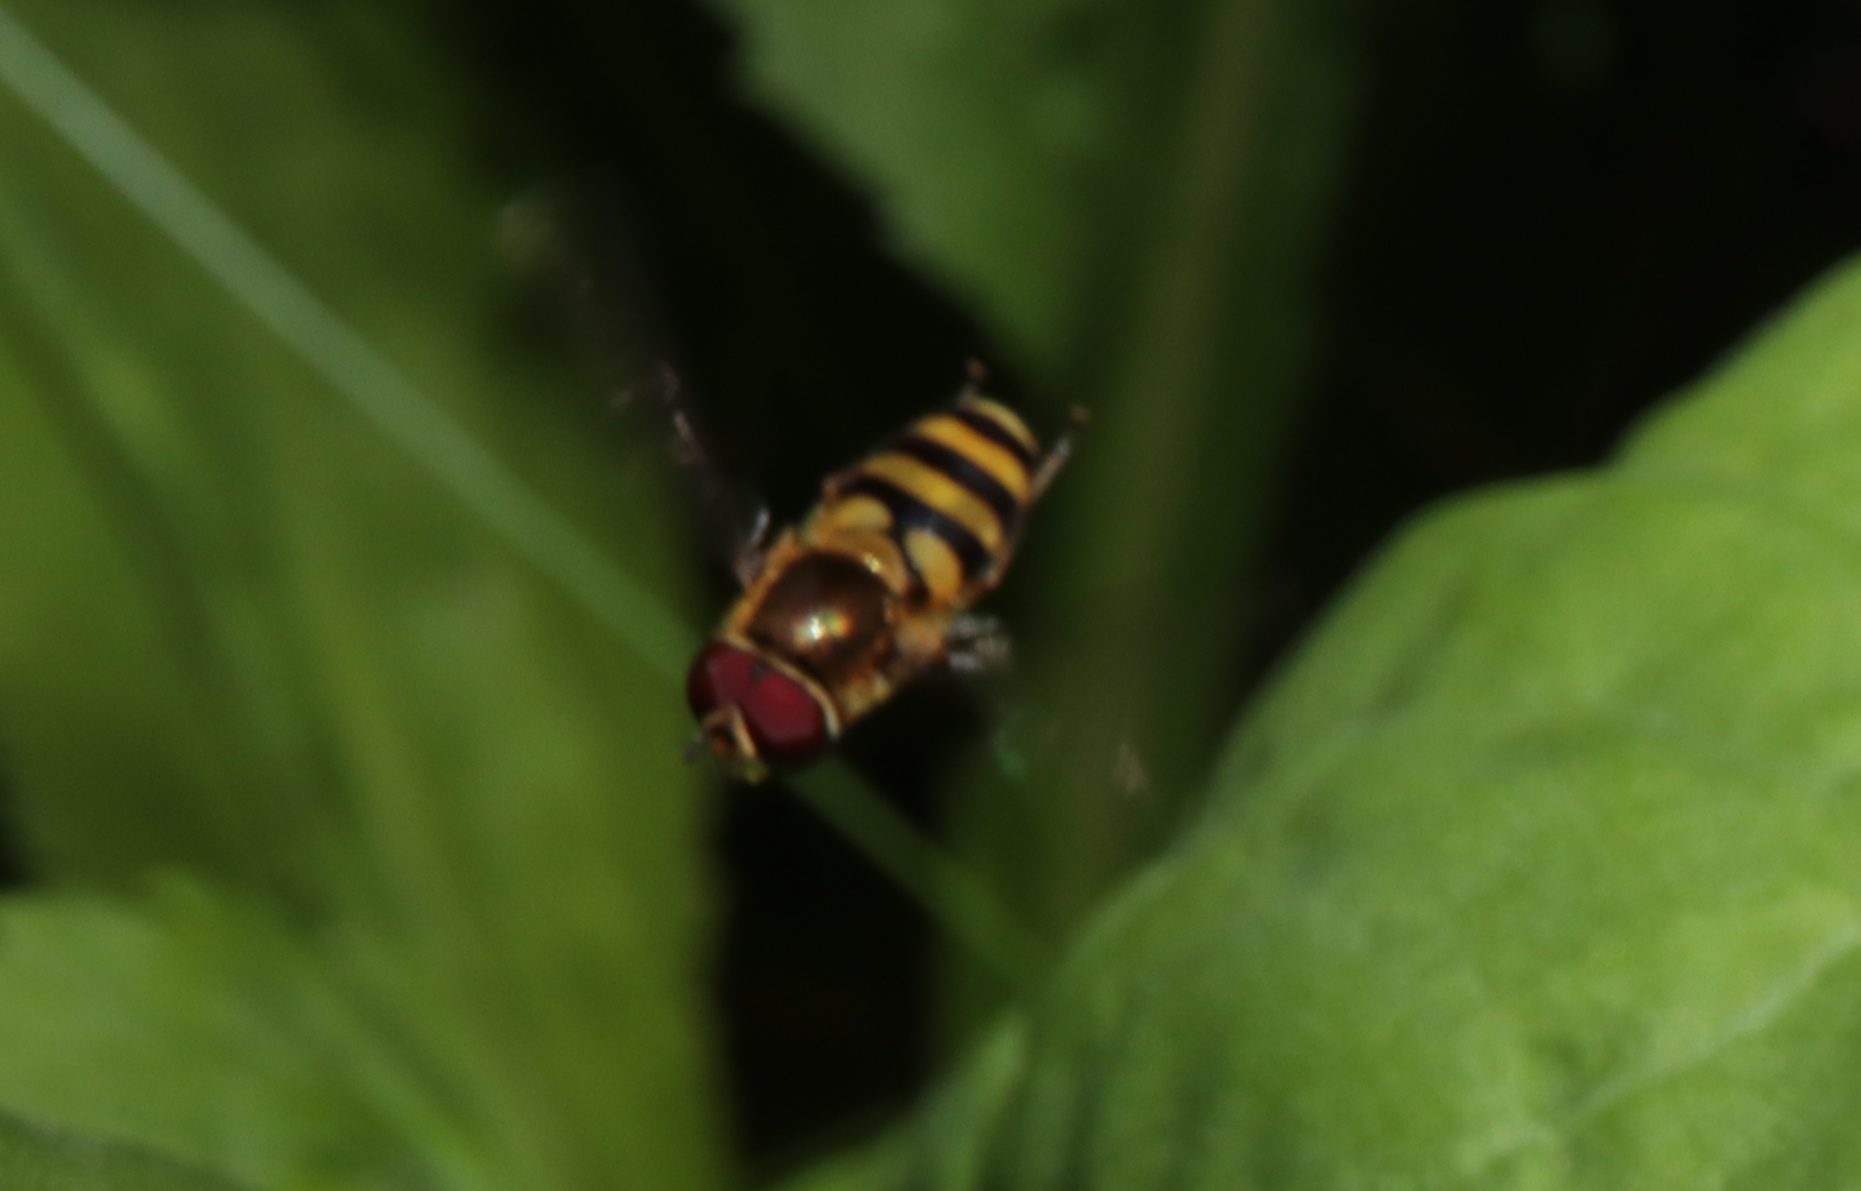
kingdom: Animalia
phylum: Arthropoda
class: Insecta
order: Diptera
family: Syrphidae
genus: Syrphus
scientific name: Syrphus
